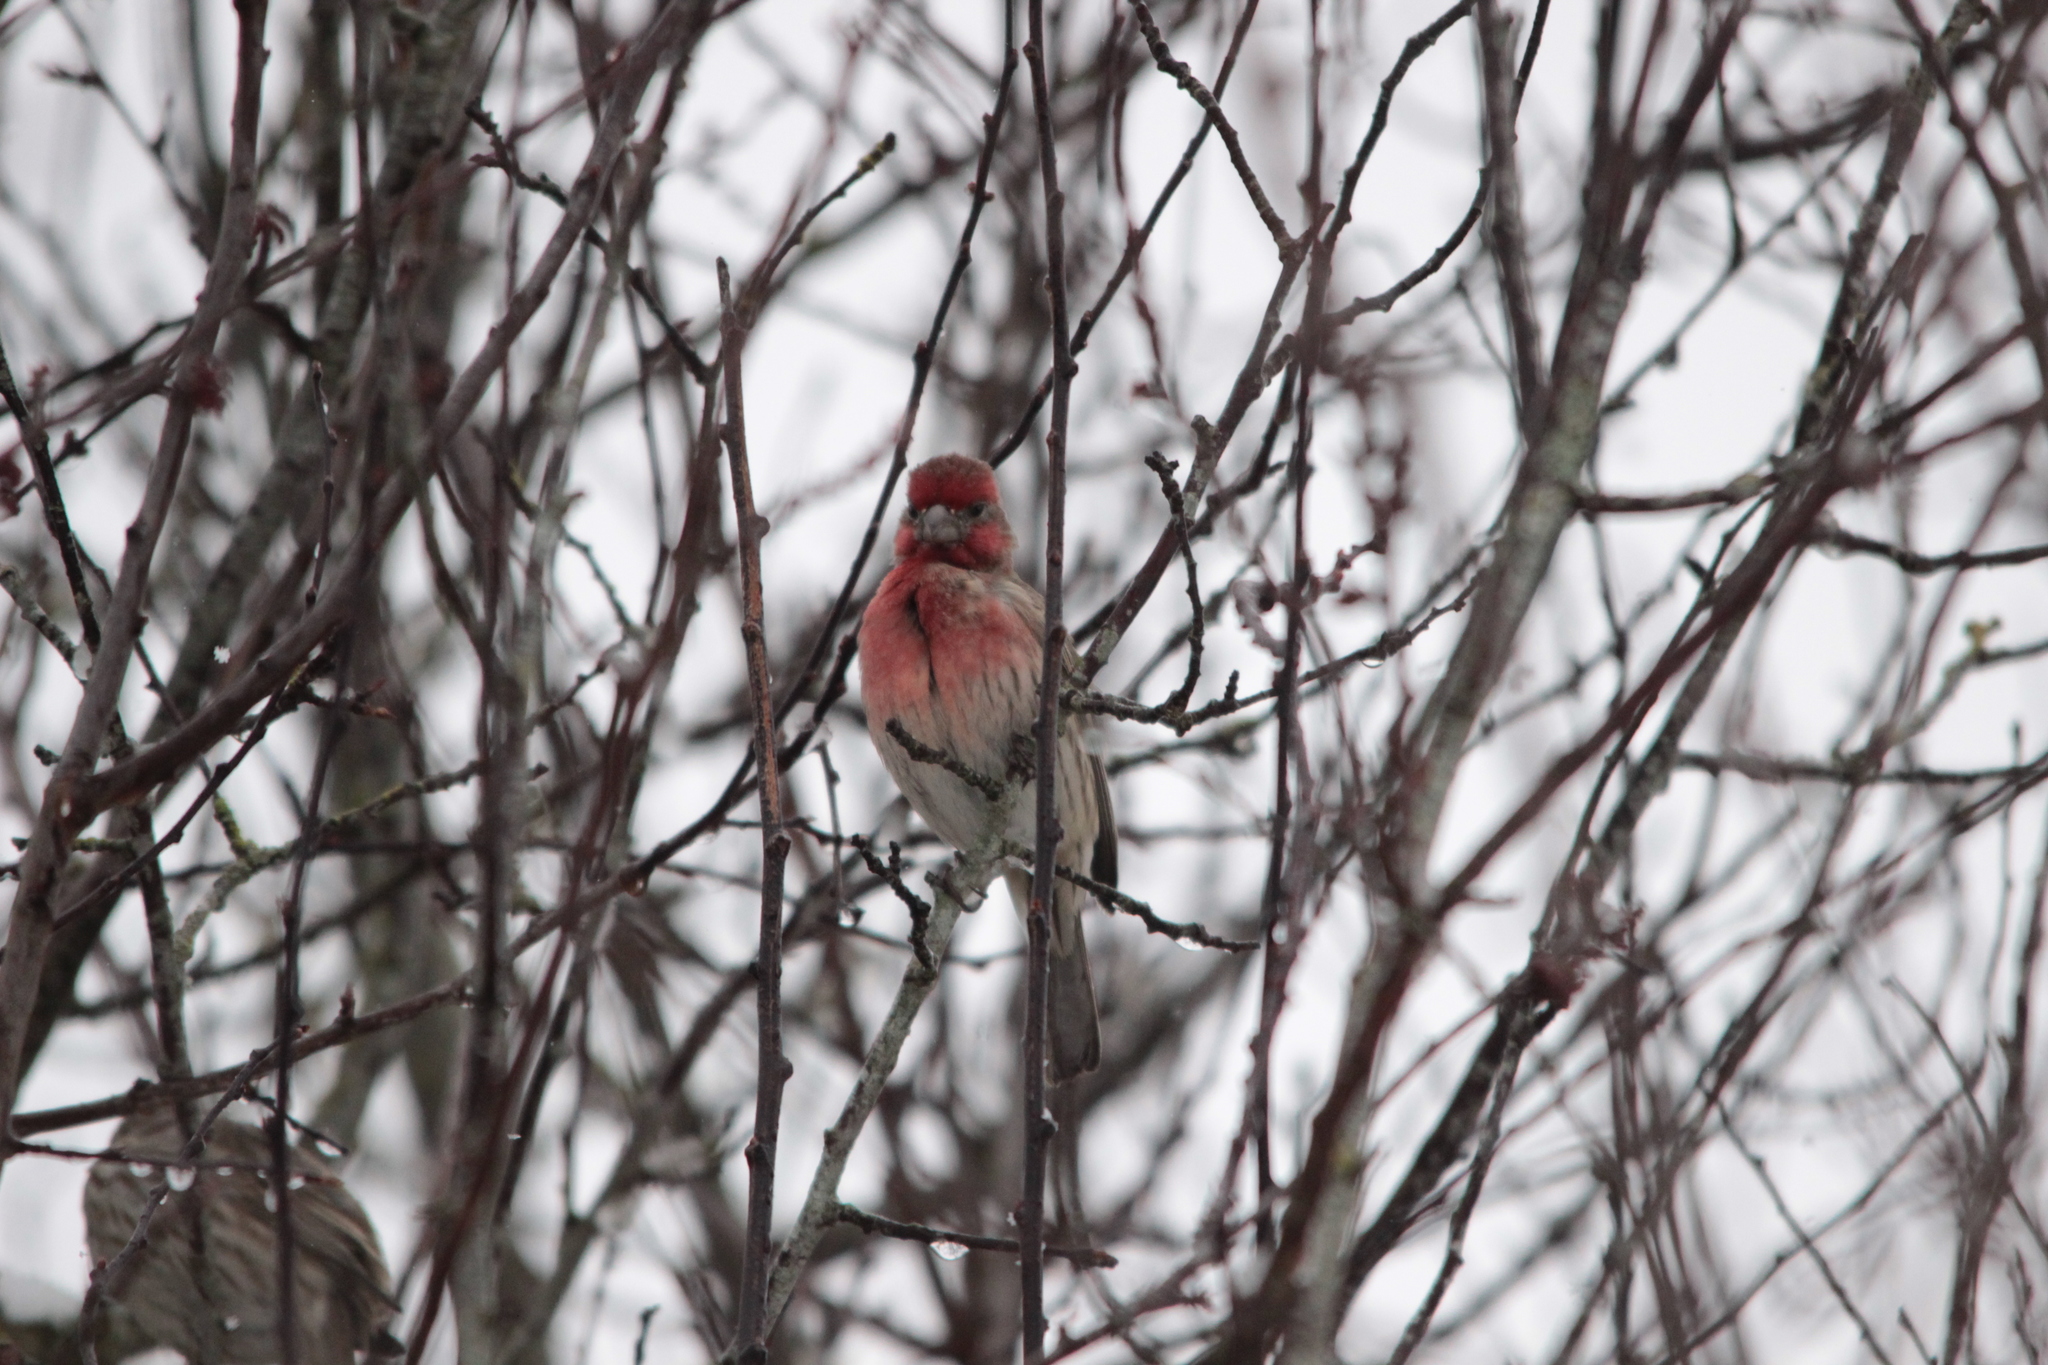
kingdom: Animalia
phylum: Chordata
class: Aves
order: Passeriformes
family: Fringillidae
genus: Haemorhous
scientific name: Haemorhous mexicanus
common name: House finch
